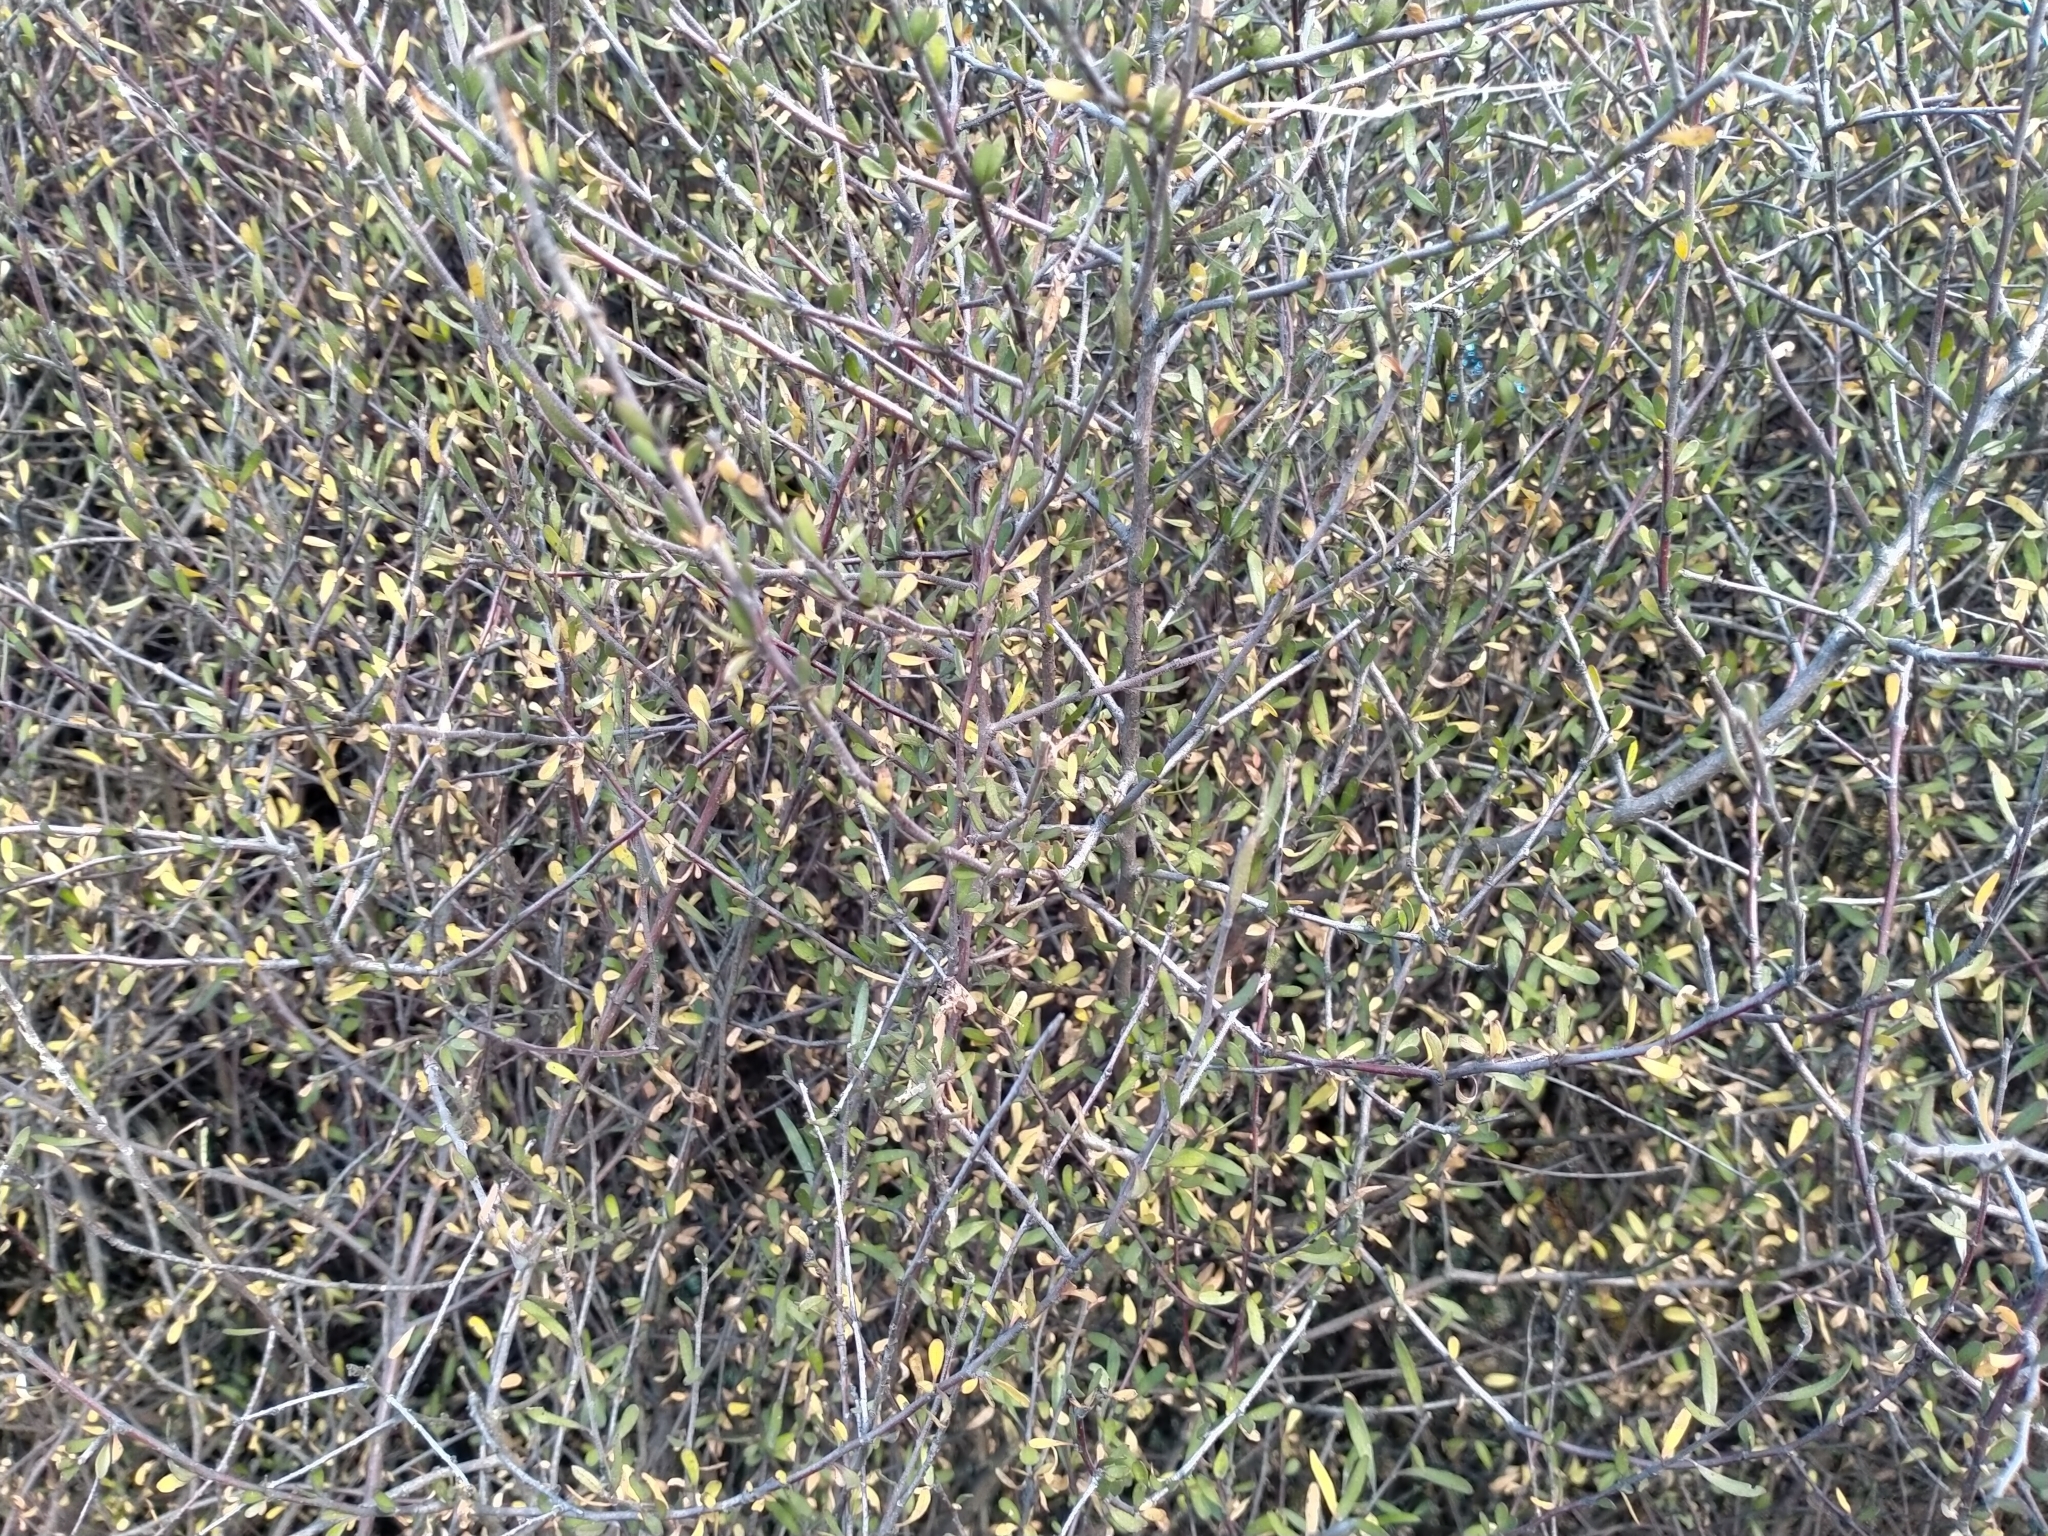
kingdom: Plantae
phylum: Tracheophyta
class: Magnoliopsida
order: Malvales
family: Malvaceae
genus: Plagianthus
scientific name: Plagianthus divaricatus
